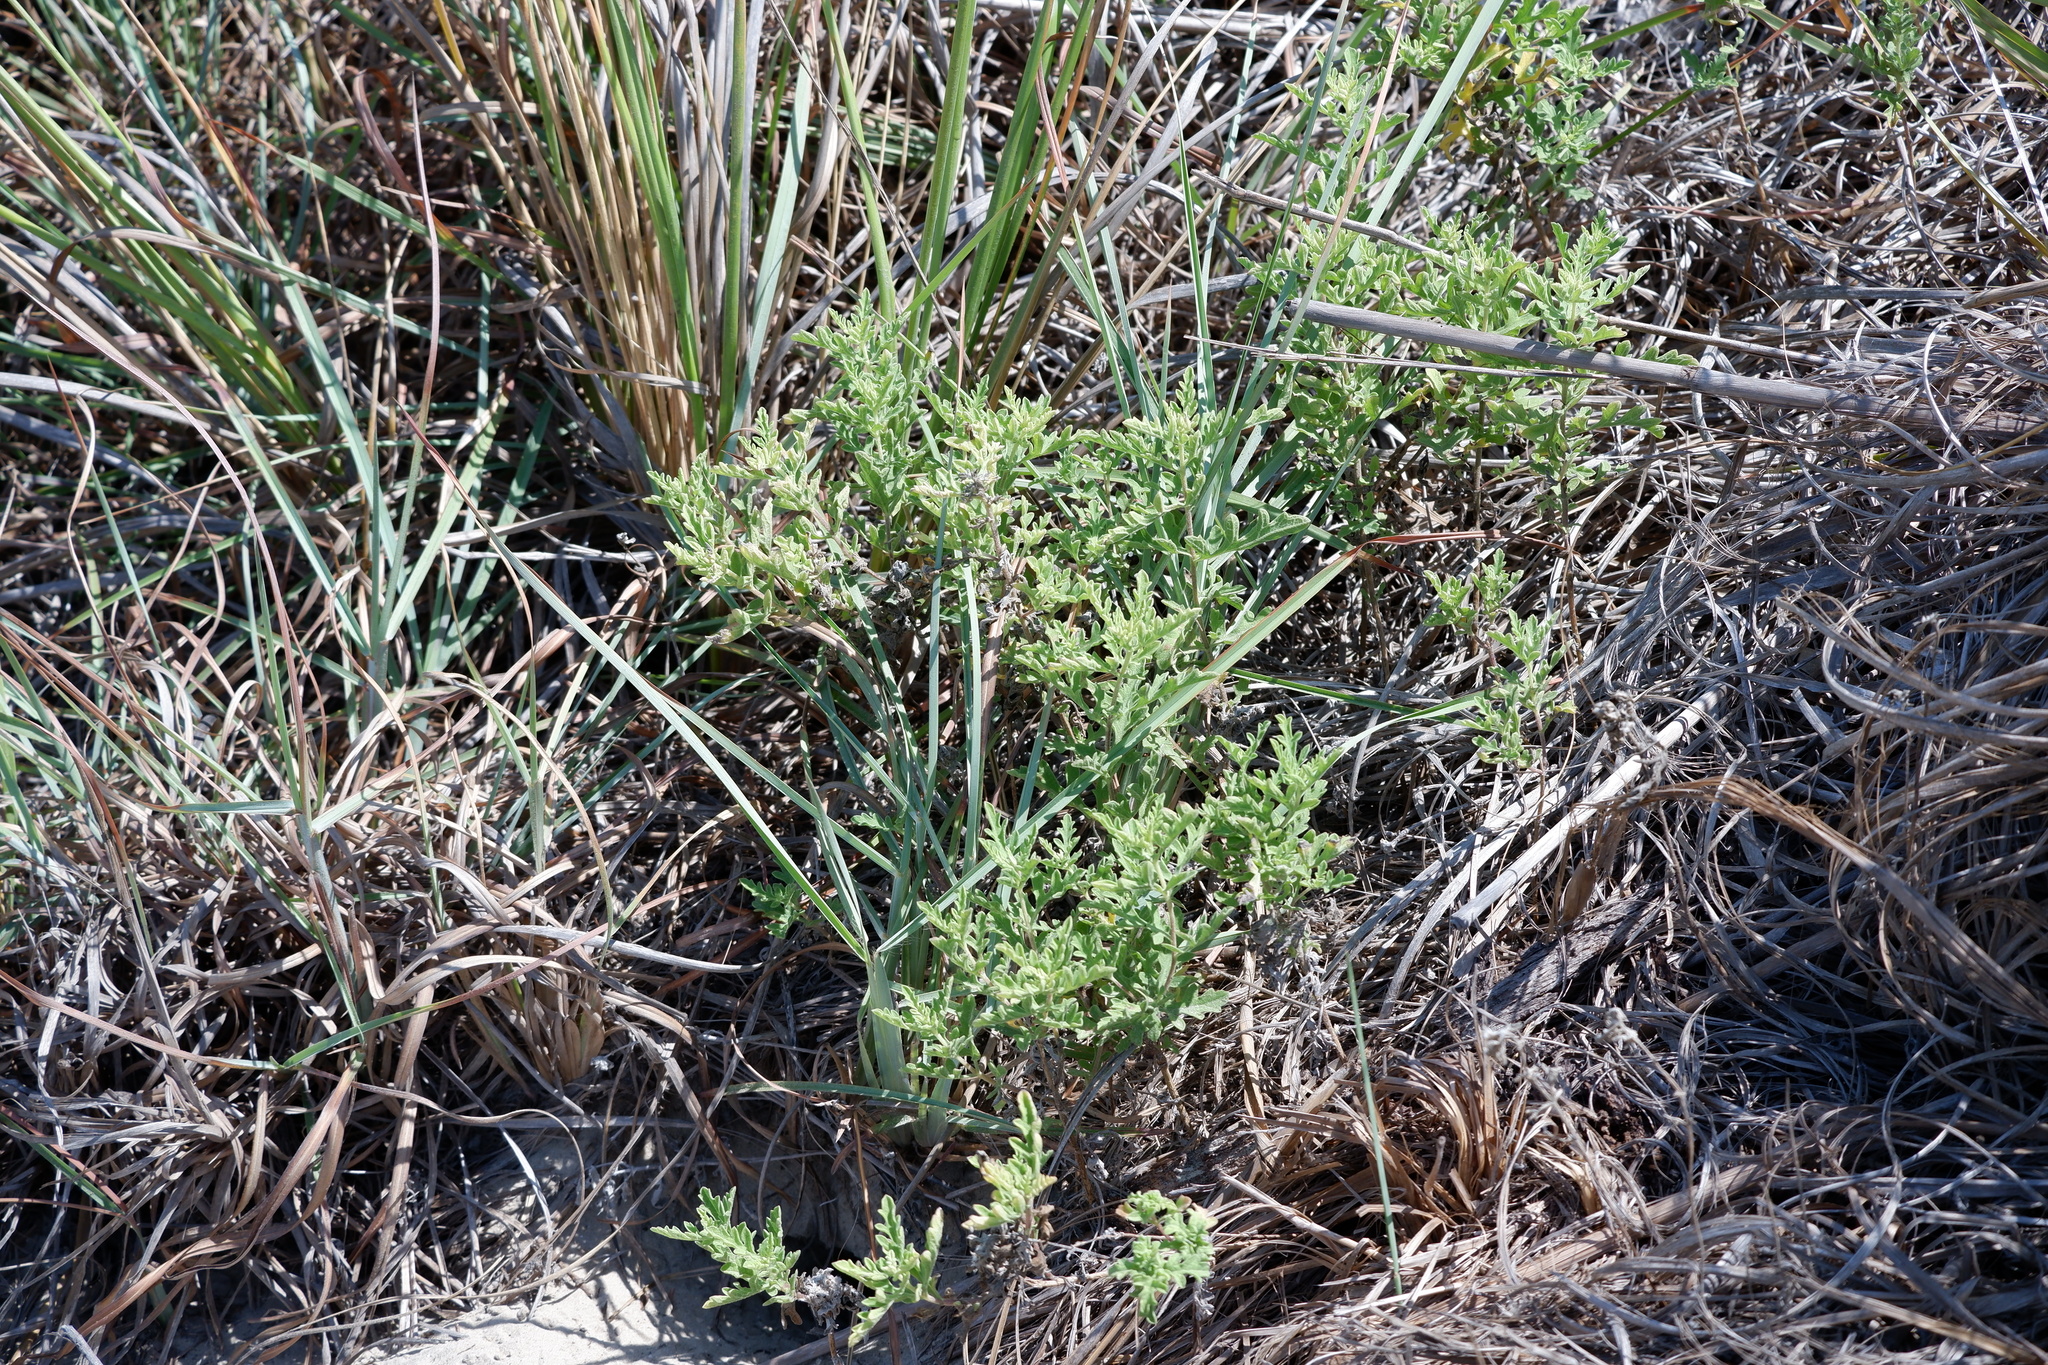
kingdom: Plantae
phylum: Tracheophyta
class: Magnoliopsida
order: Asterales
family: Asteraceae
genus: Ambrosia
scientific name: Ambrosia psilostachya
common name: Perennial ragweed
